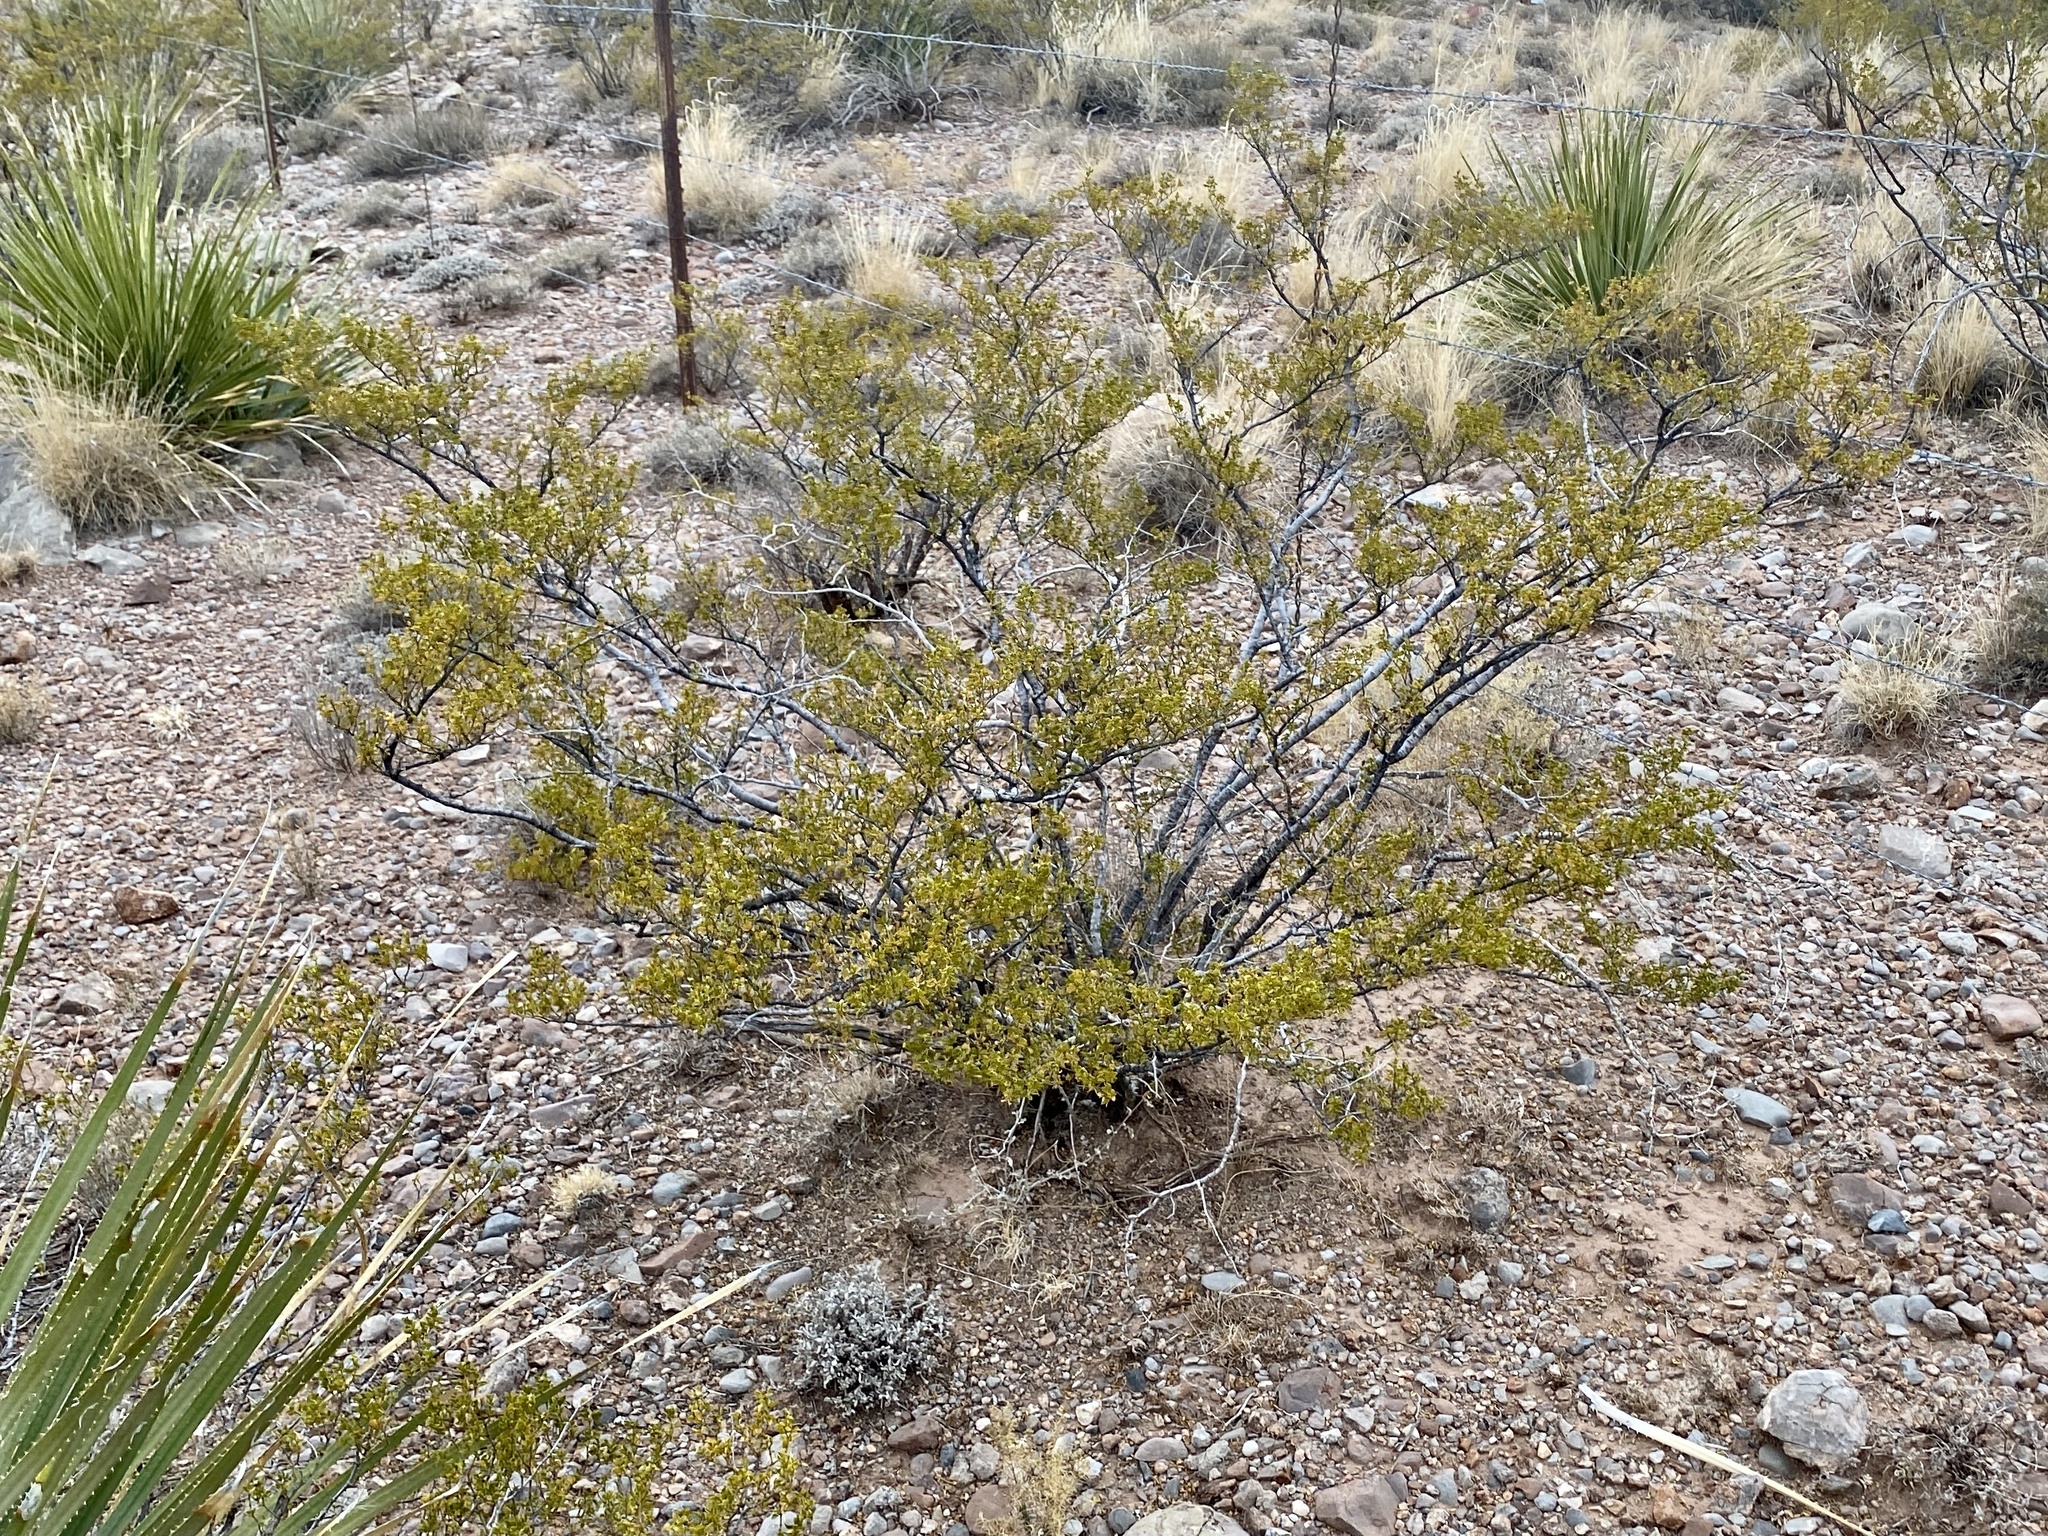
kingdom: Plantae
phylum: Tracheophyta
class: Magnoliopsida
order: Zygophyllales
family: Zygophyllaceae
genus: Larrea
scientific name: Larrea tridentata
